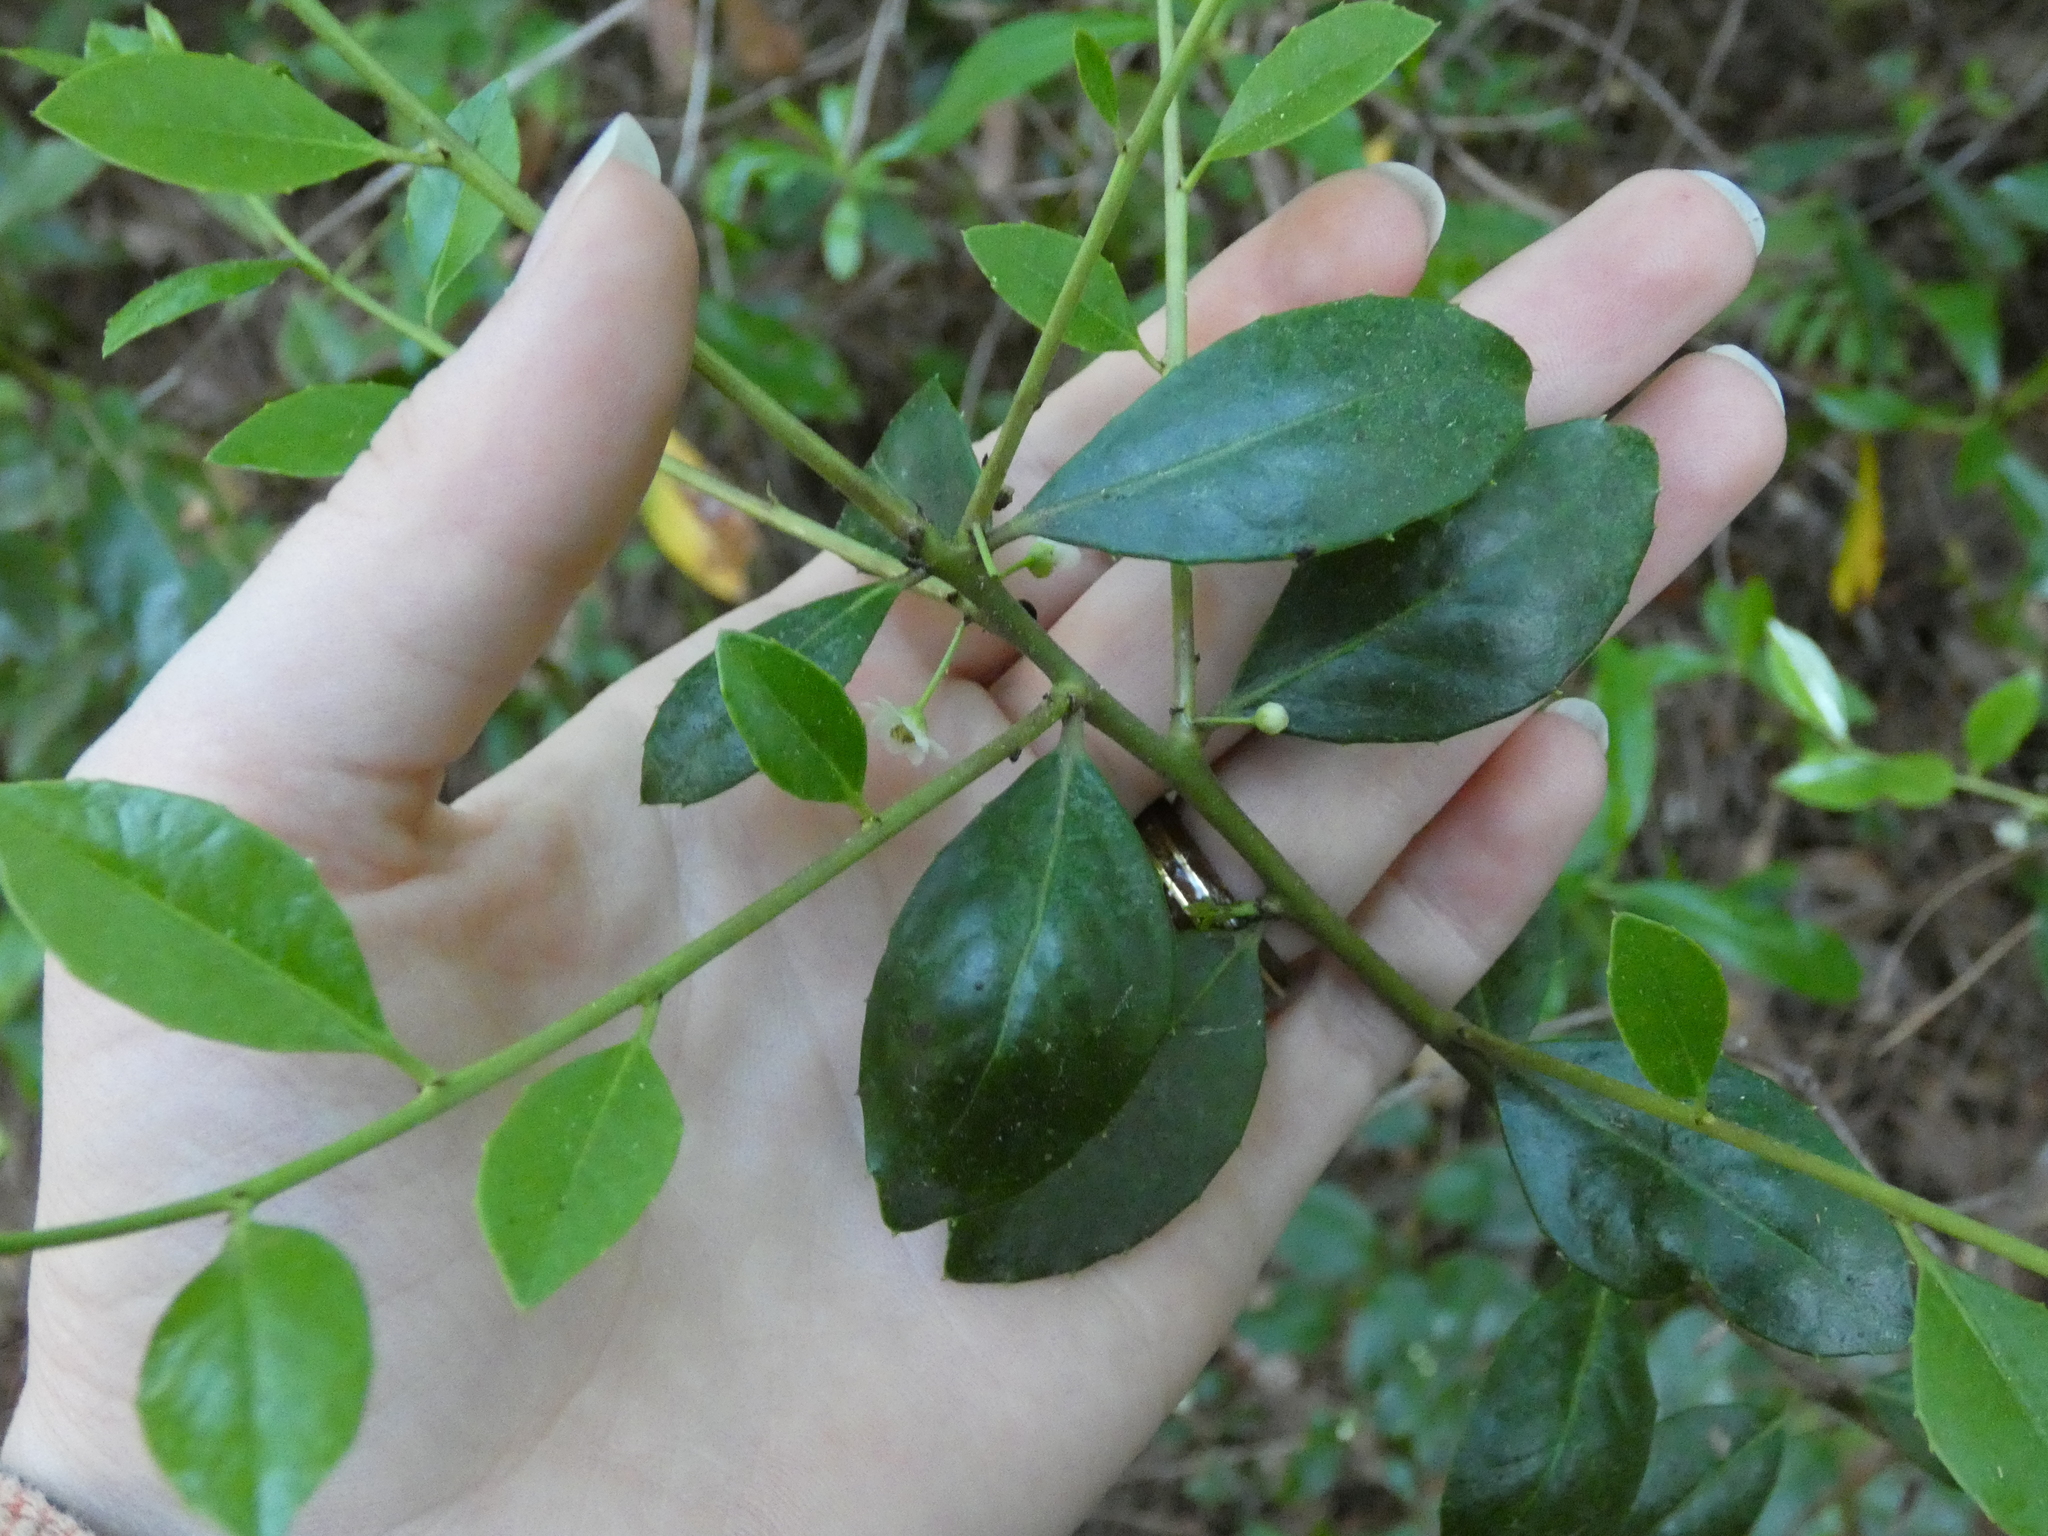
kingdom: Plantae
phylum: Tracheophyta
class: Magnoliopsida
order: Aquifoliales
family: Aquifoliaceae
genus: Ilex
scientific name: Ilex coriacea
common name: Sweet gallberry
